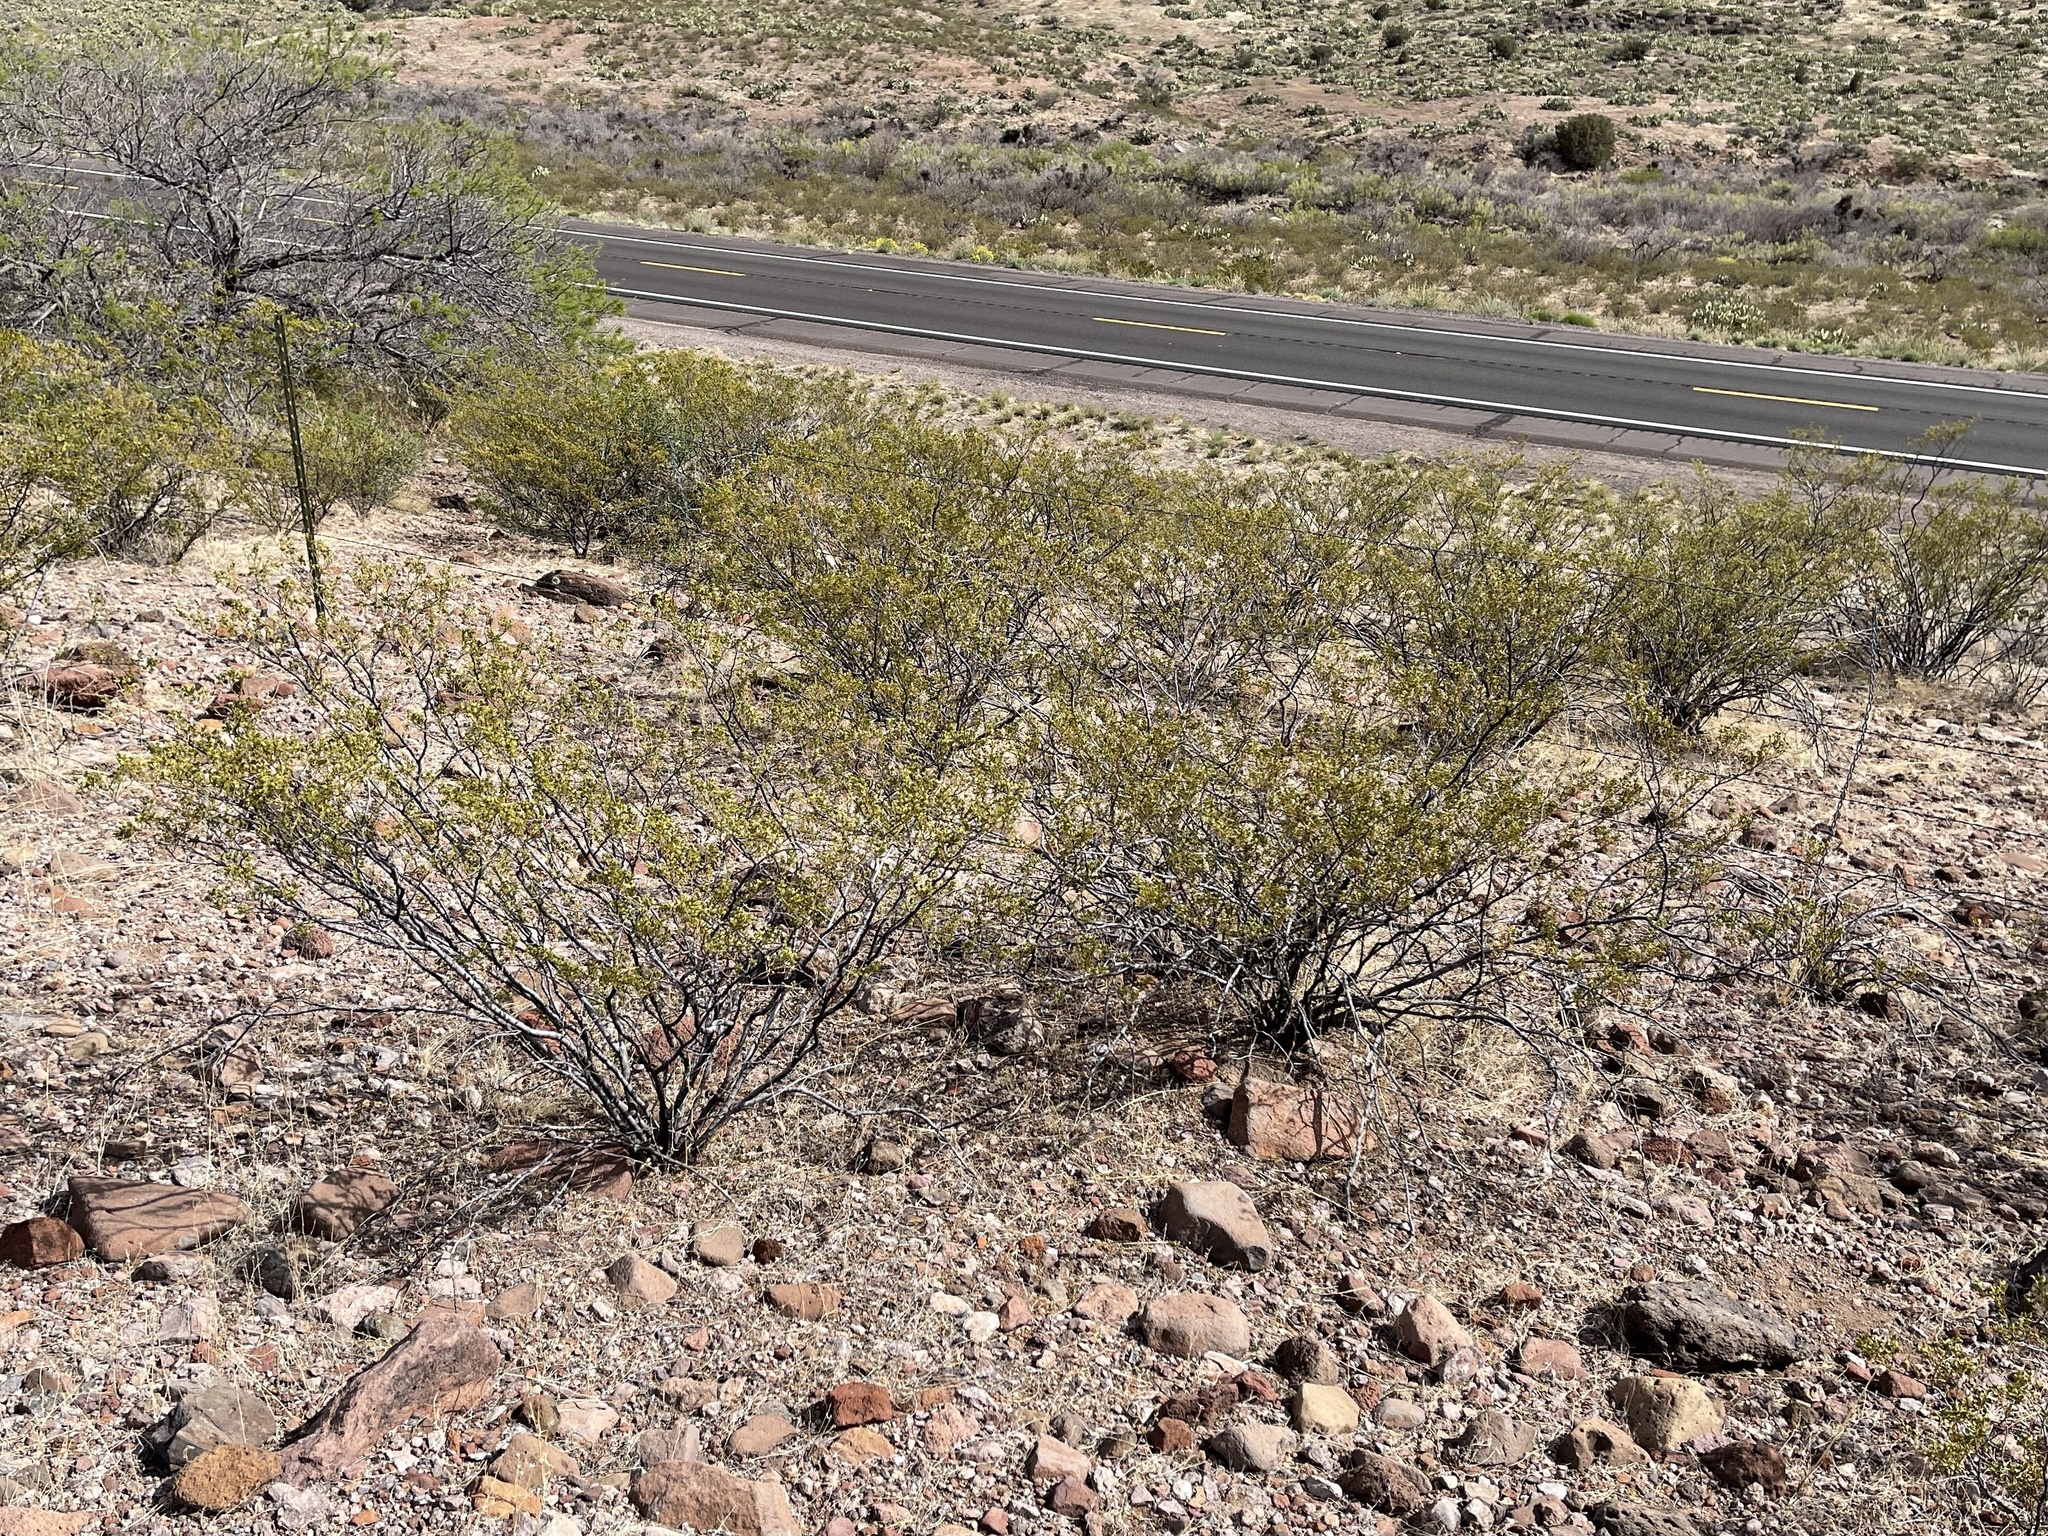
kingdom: Plantae
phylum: Tracheophyta
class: Magnoliopsida
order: Zygophyllales
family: Zygophyllaceae
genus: Larrea
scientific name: Larrea tridentata
